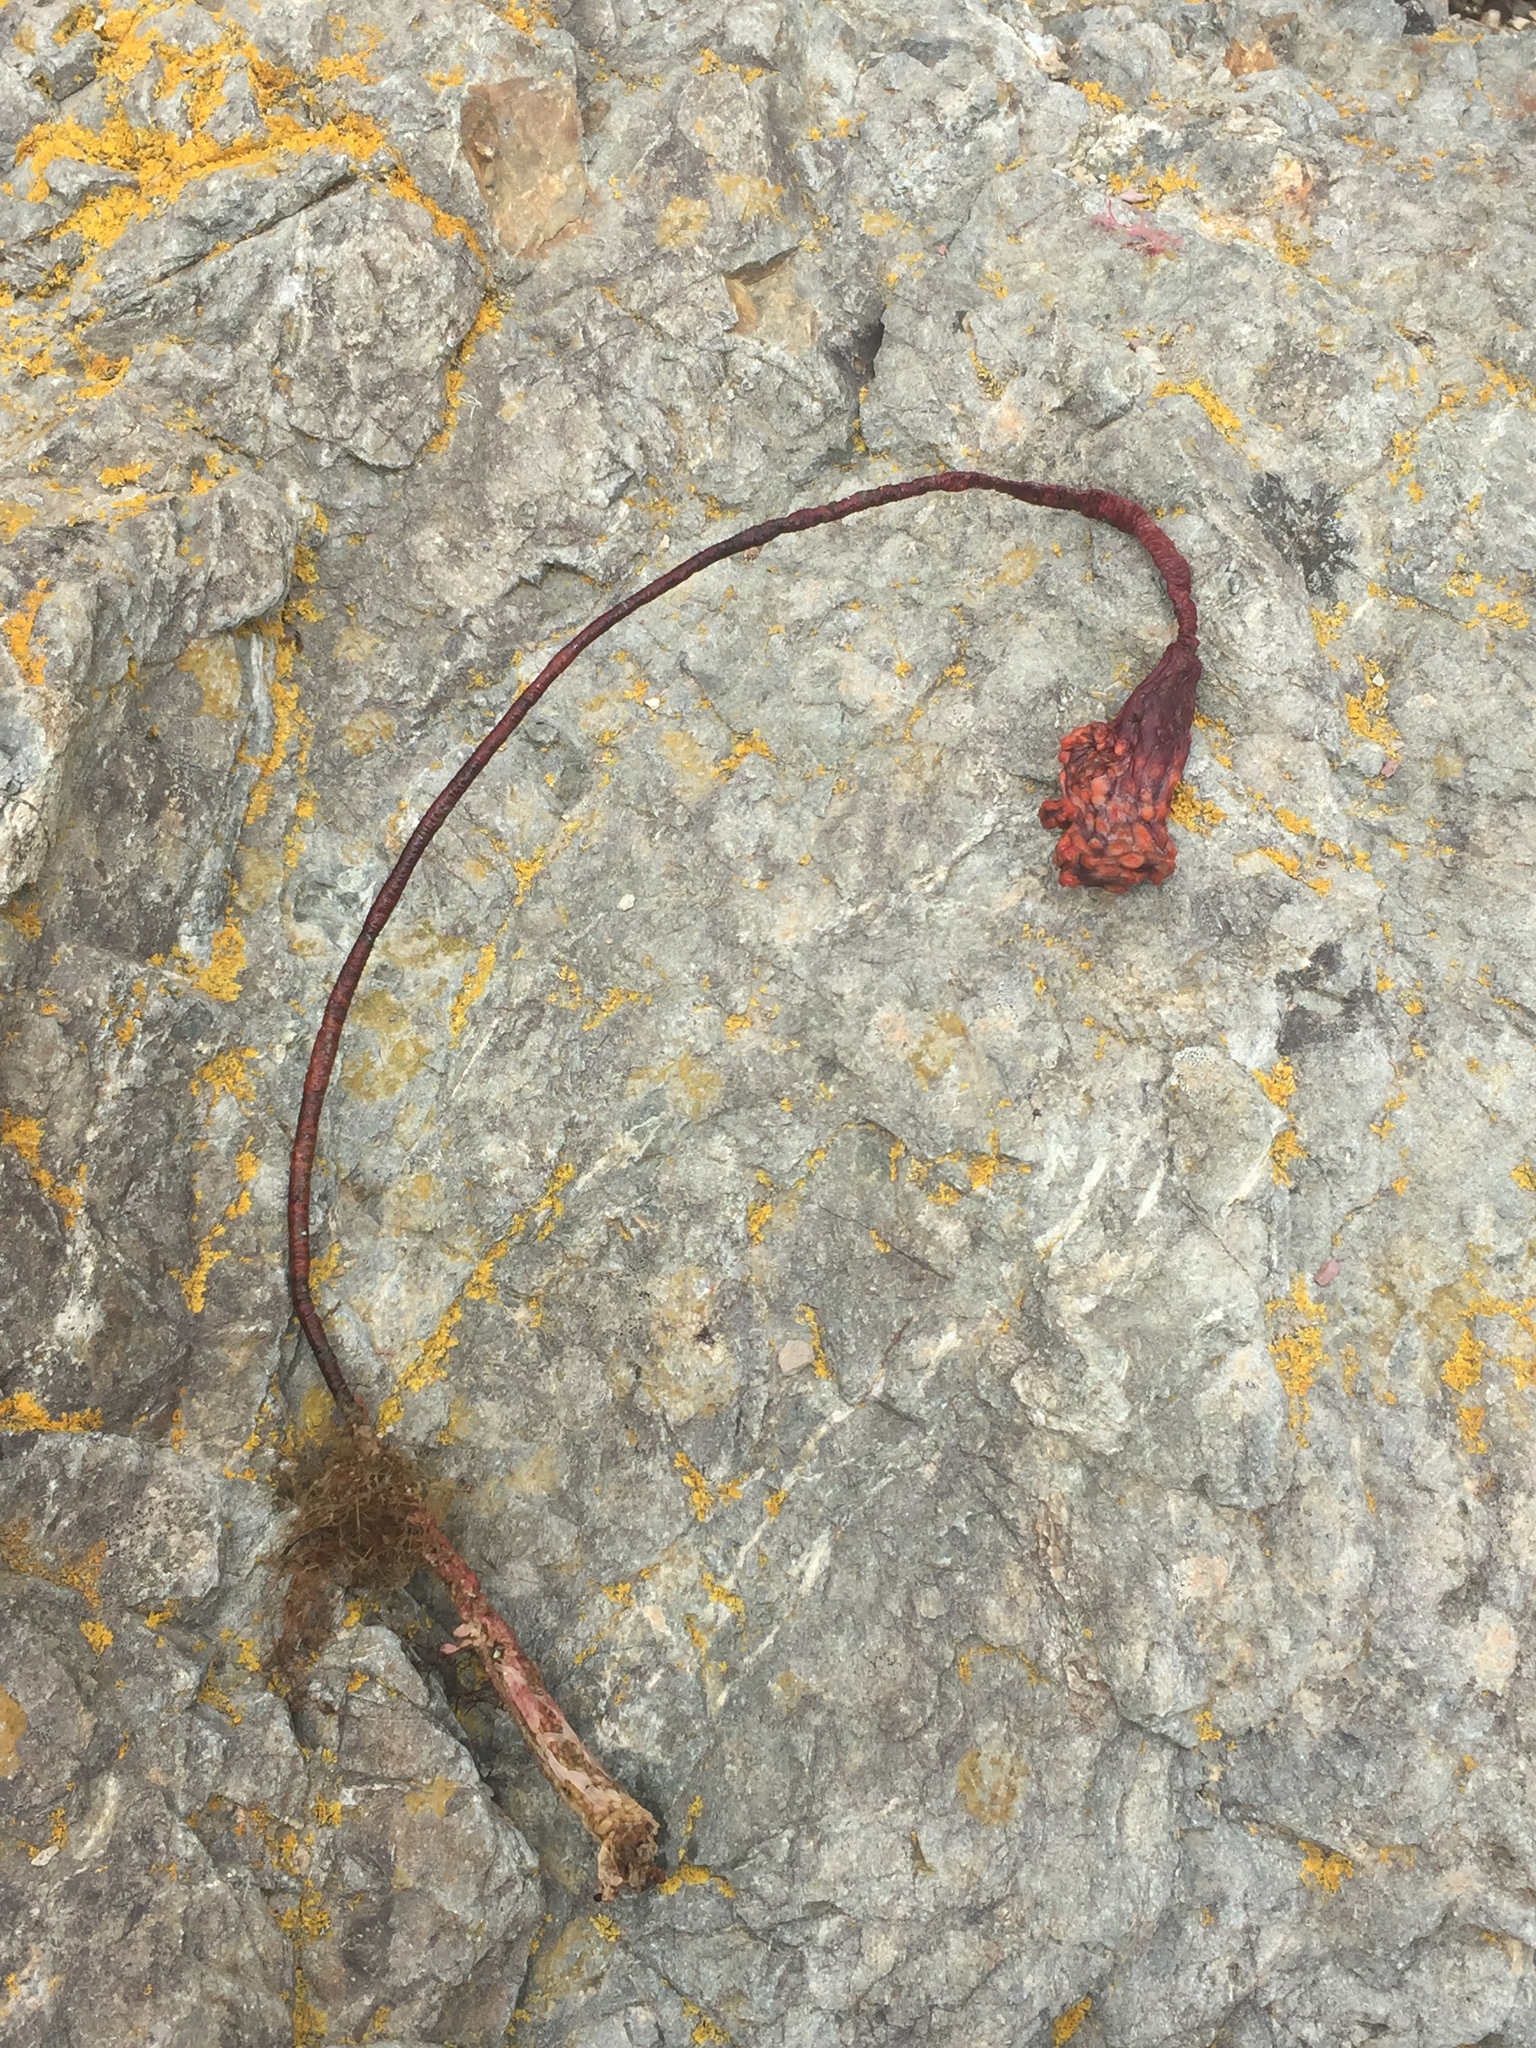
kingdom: Animalia
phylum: Chordata
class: Ascidiacea
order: Stolidobranchia
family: Pyuridae
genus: Pyura
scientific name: Pyura pachydermatina
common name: Sea tulip
